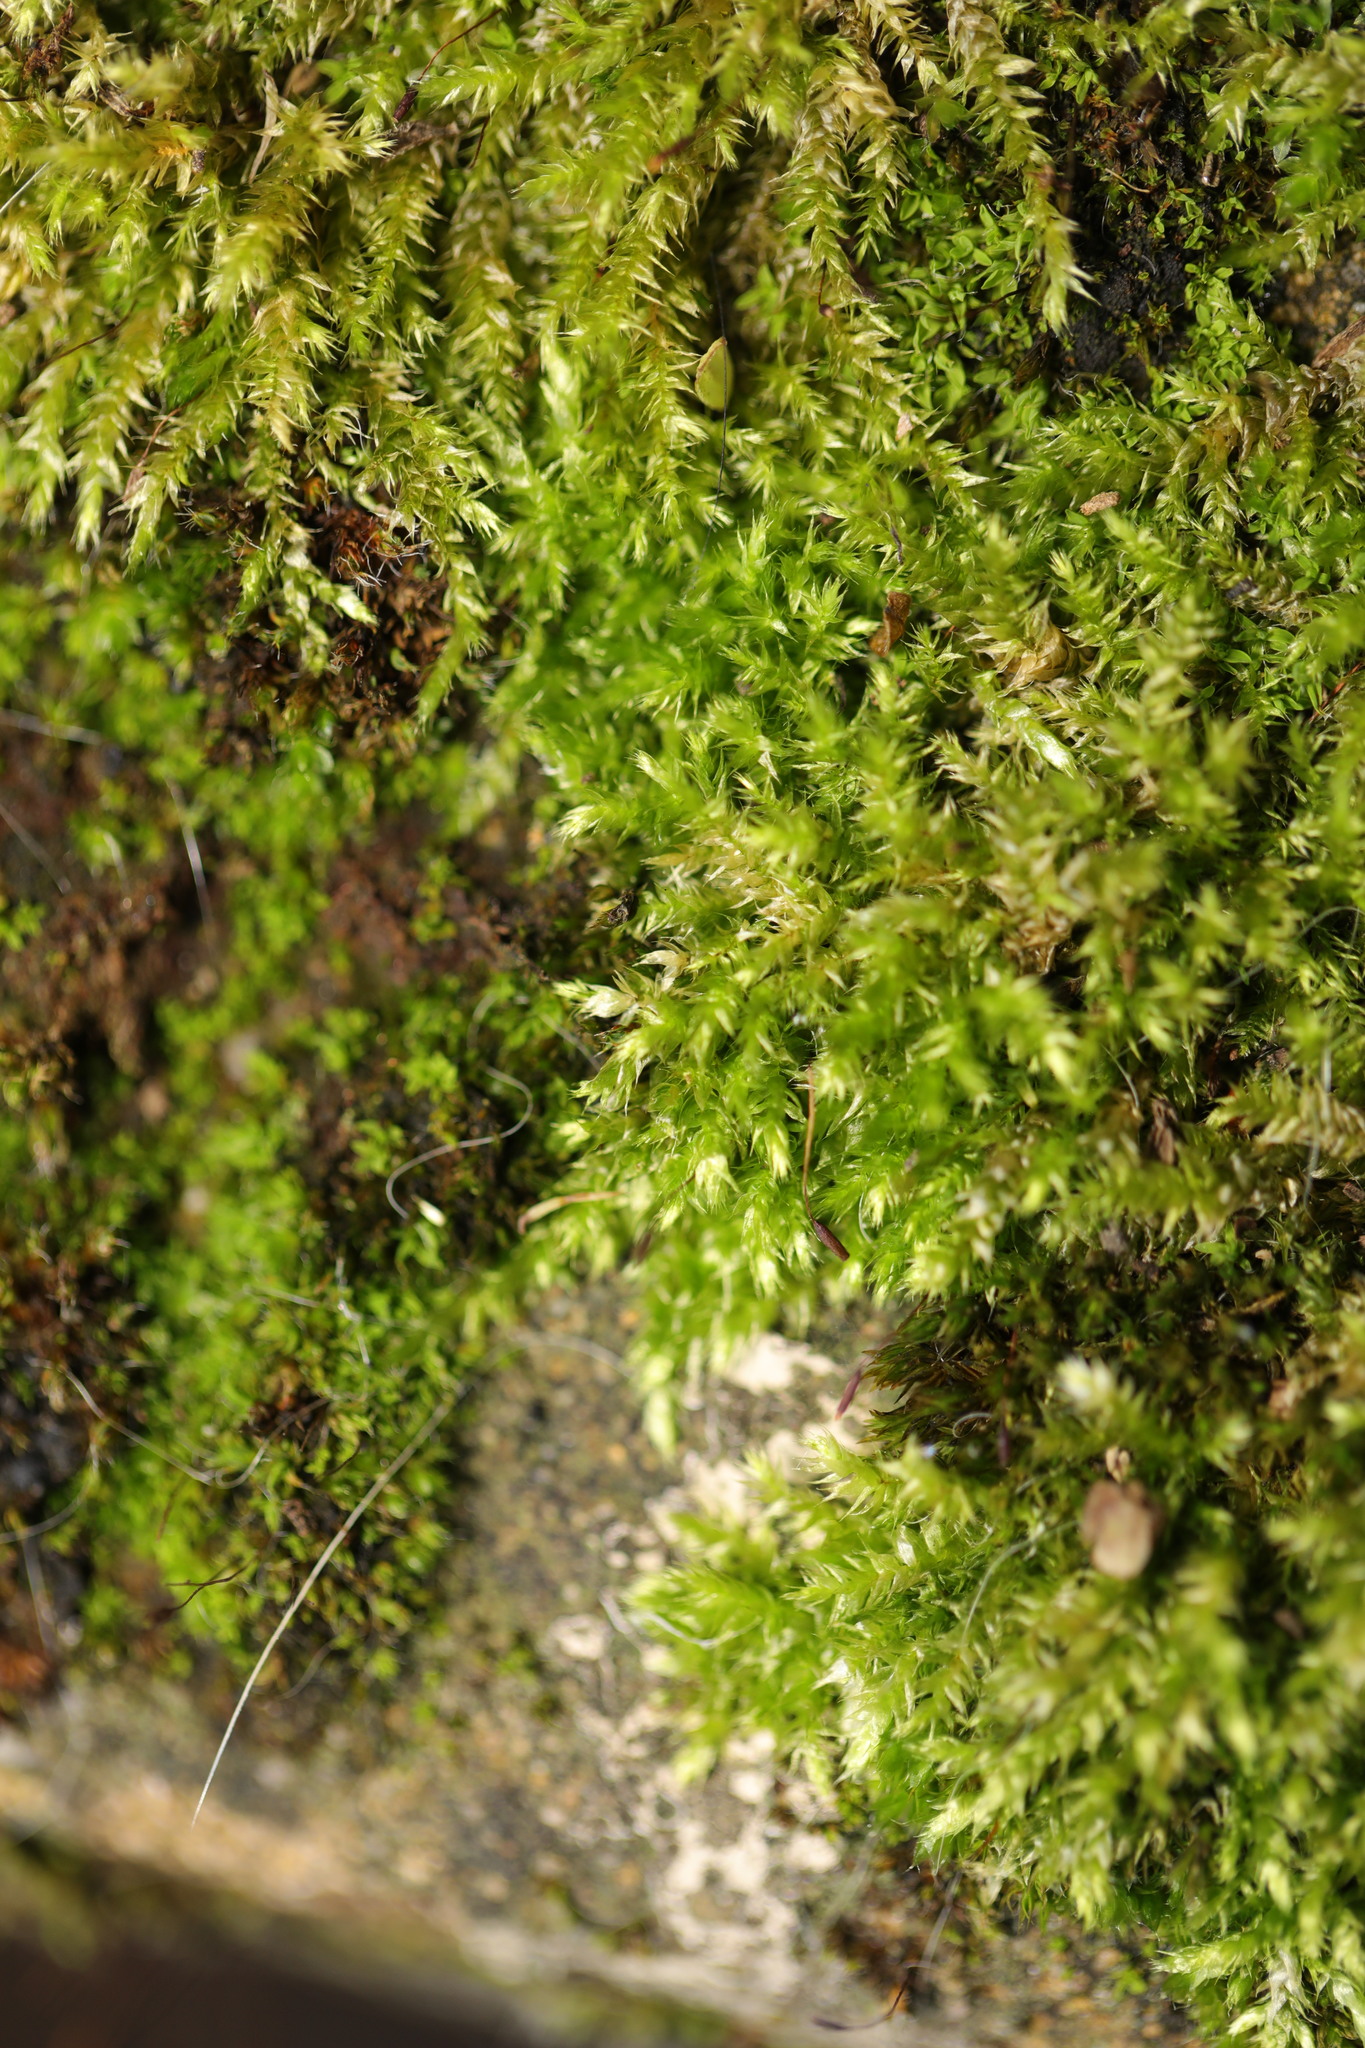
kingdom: Plantae
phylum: Bryophyta
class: Bryopsida
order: Hypnales
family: Brachytheciaceae
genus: Brachythecium
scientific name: Brachythecium rutabulum
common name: Rough-stalked feather-moss
